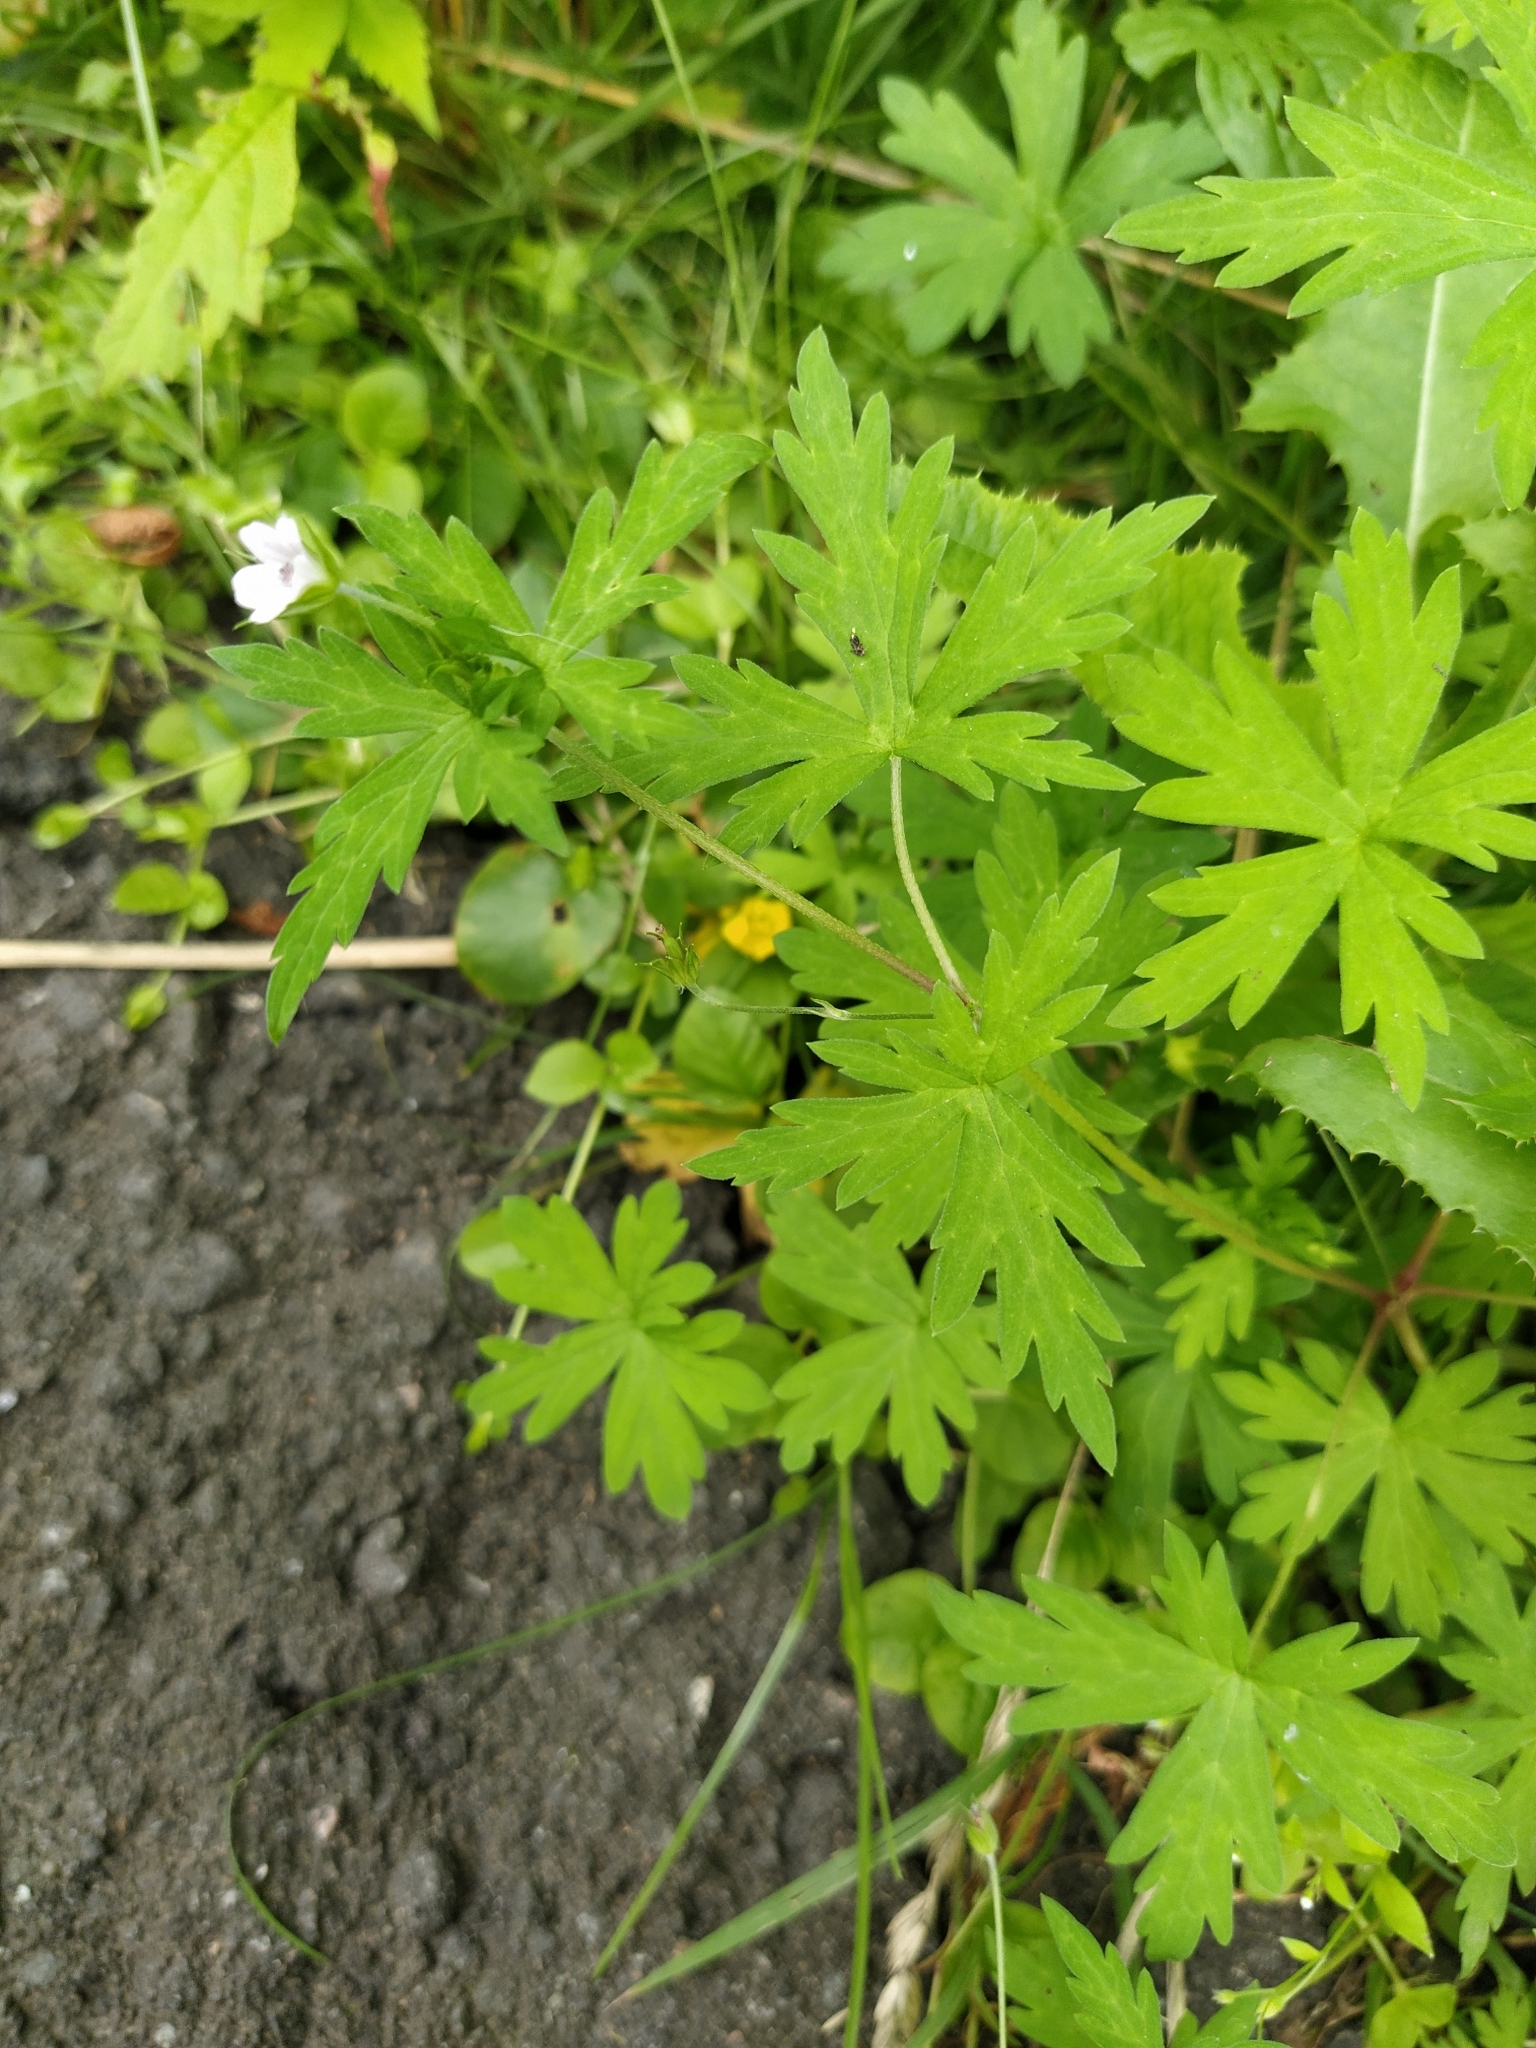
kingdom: Plantae
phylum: Tracheophyta
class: Magnoliopsida
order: Geraniales
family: Geraniaceae
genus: Geranium
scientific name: Geranium sibiricum
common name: Siberian crane's-bill
